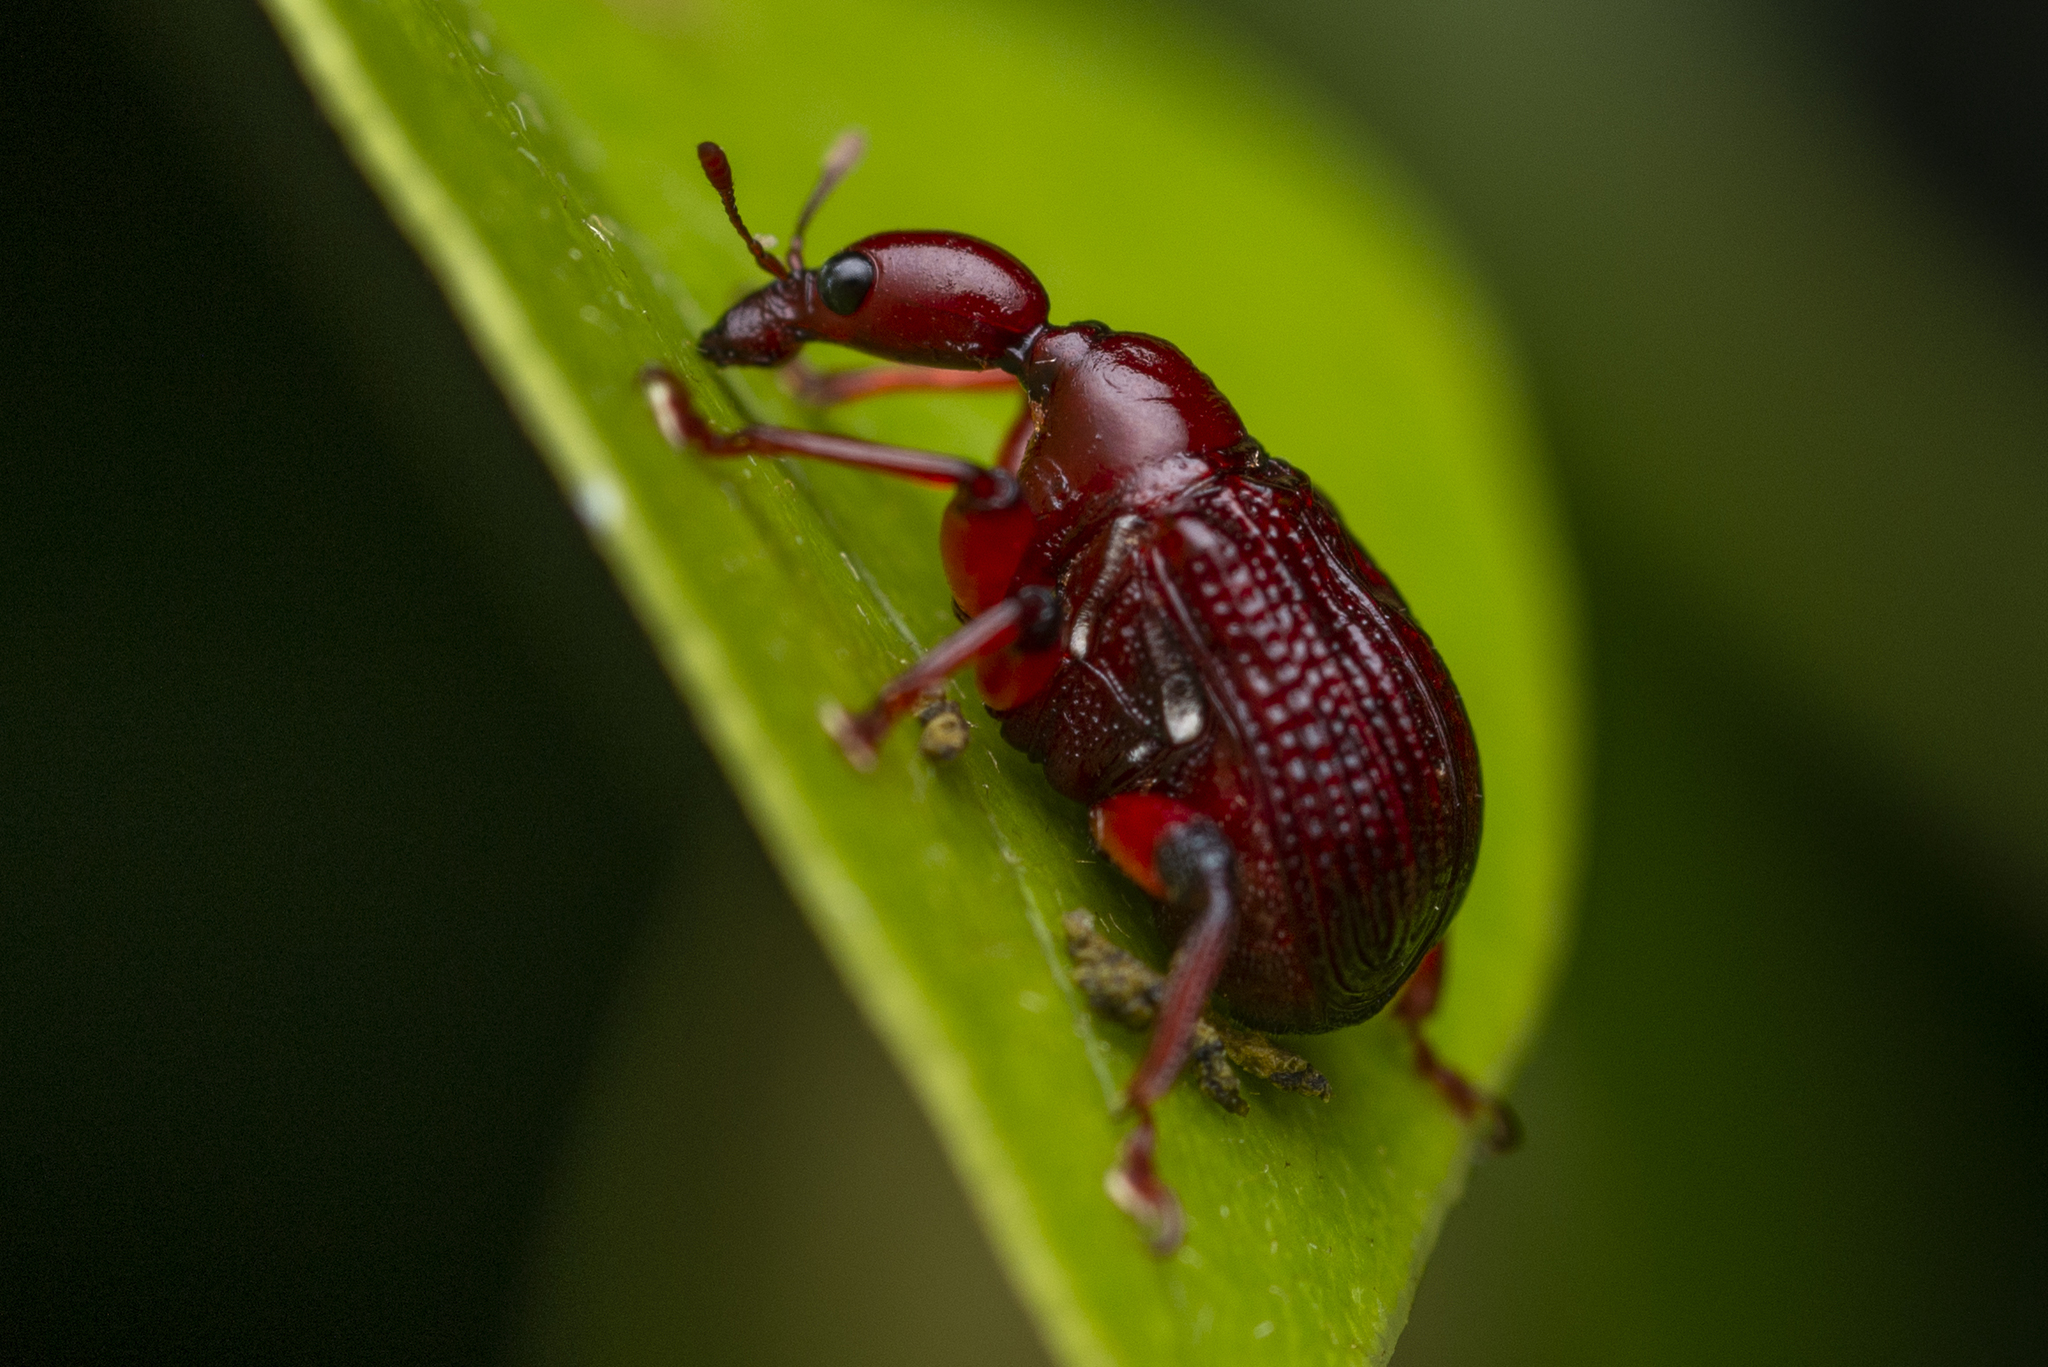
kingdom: Animalia
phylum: Arthropoda
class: Insecta
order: Coleoptera
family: Attelabidae
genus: Heterapoderus
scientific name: Heterapoderus geniculatus
